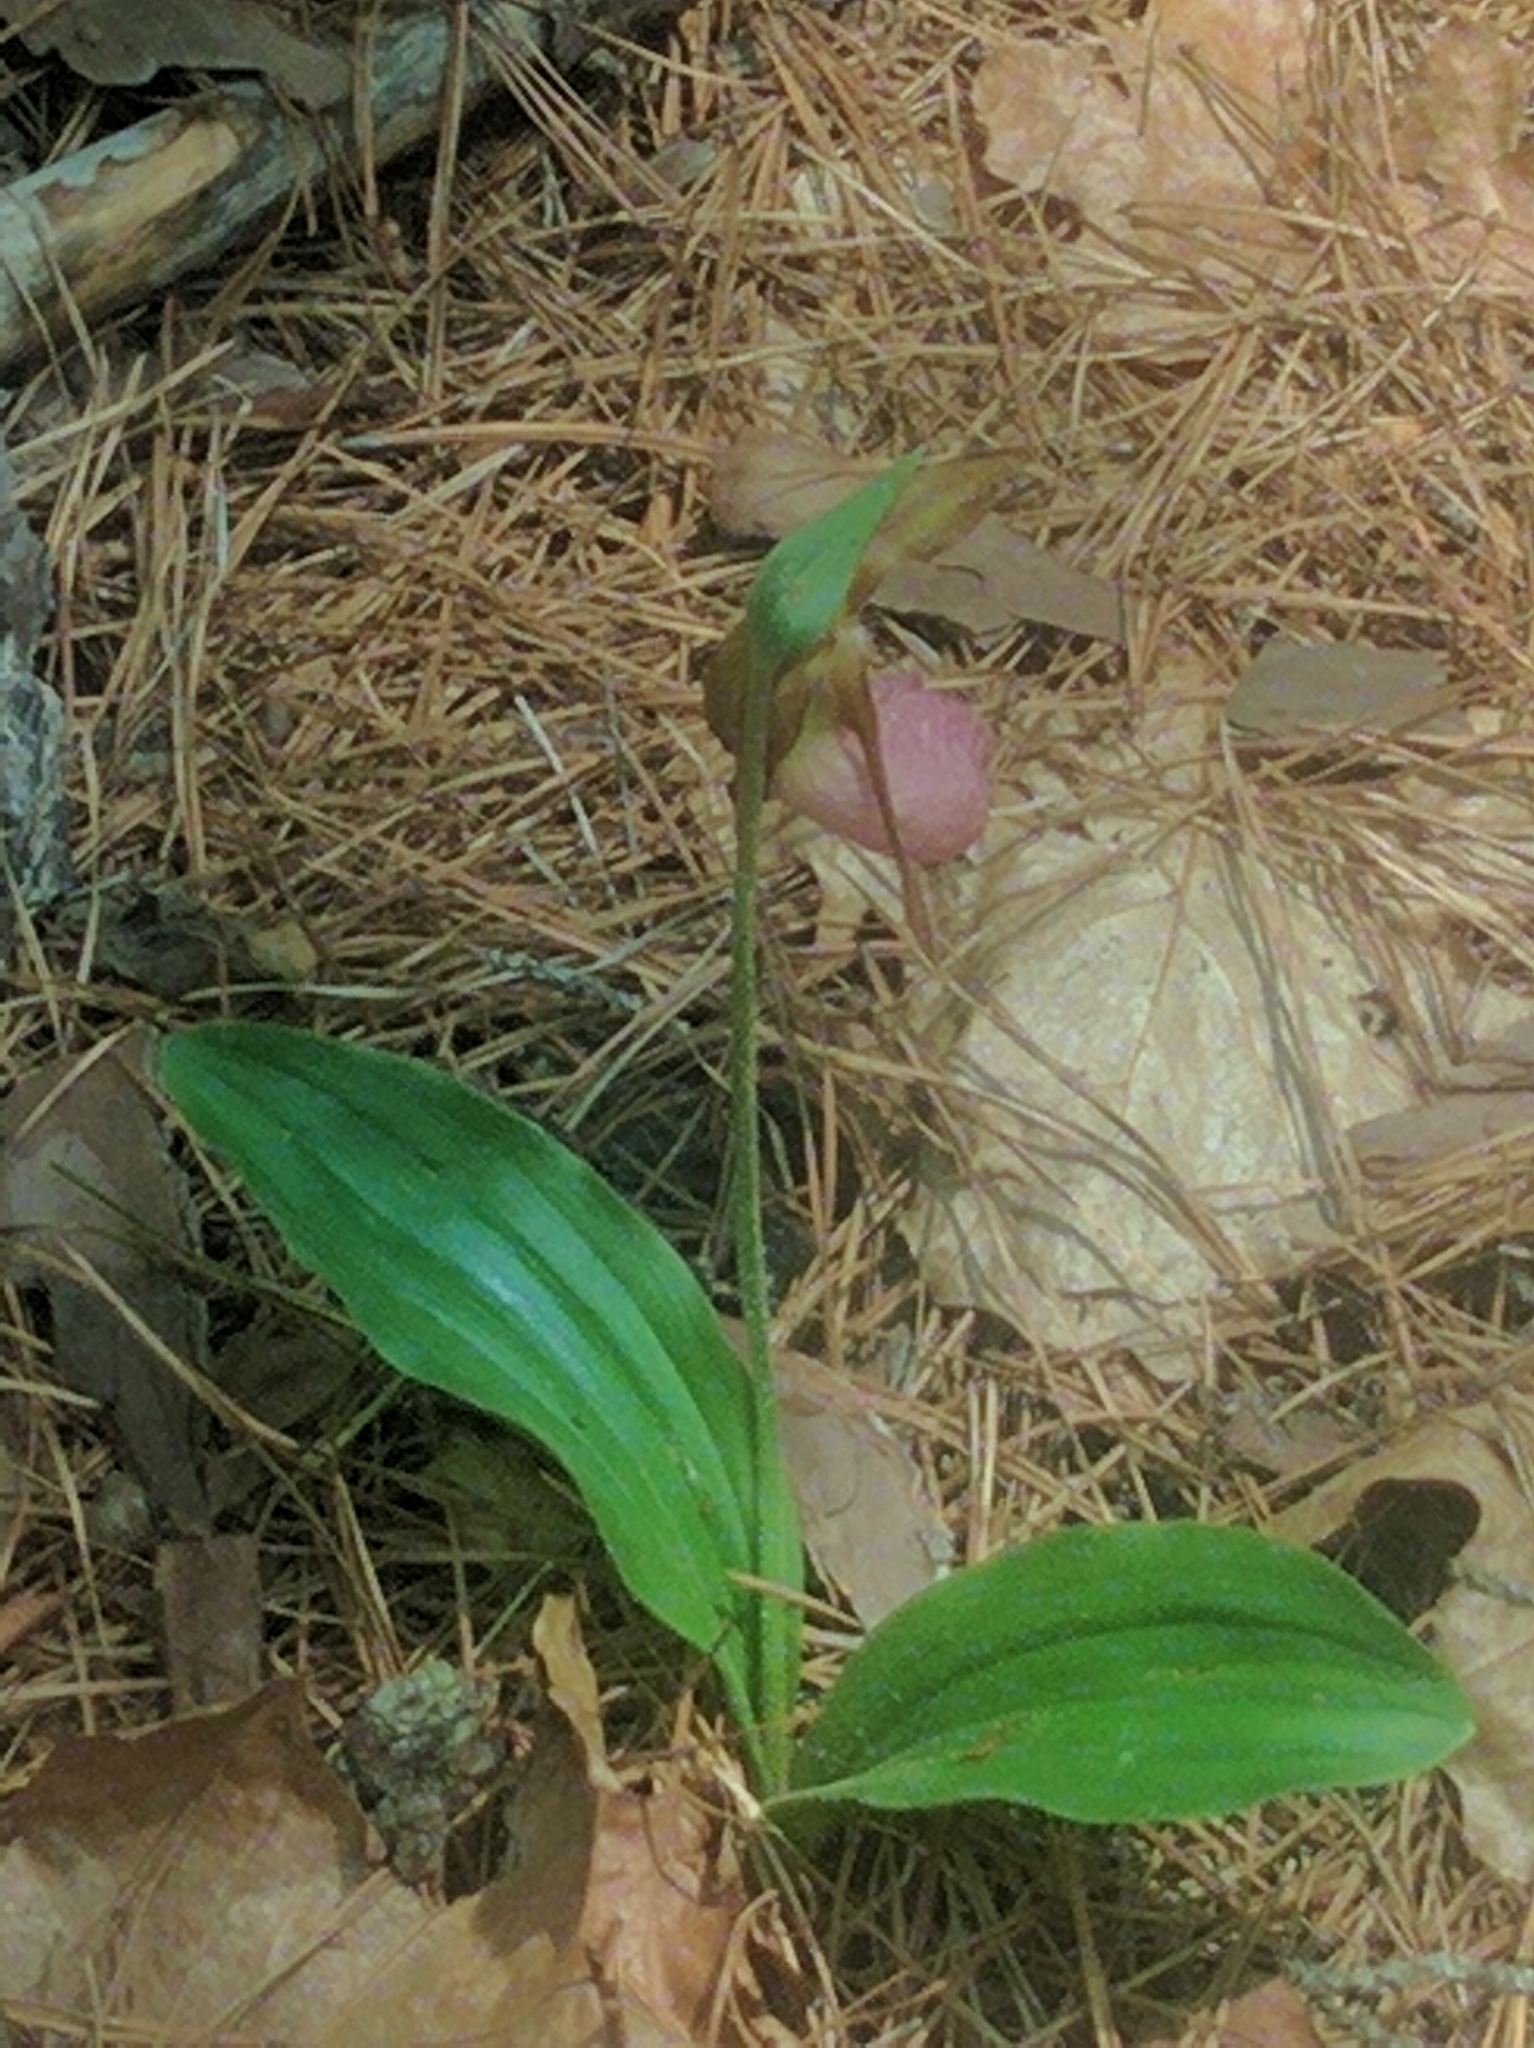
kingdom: Plantae
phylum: Tracheophyta
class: Liliopsida
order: Asparagales
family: Orchidaceae
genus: Cypripedium
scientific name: Cypripedium acaule
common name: Pink lady's-slipper
